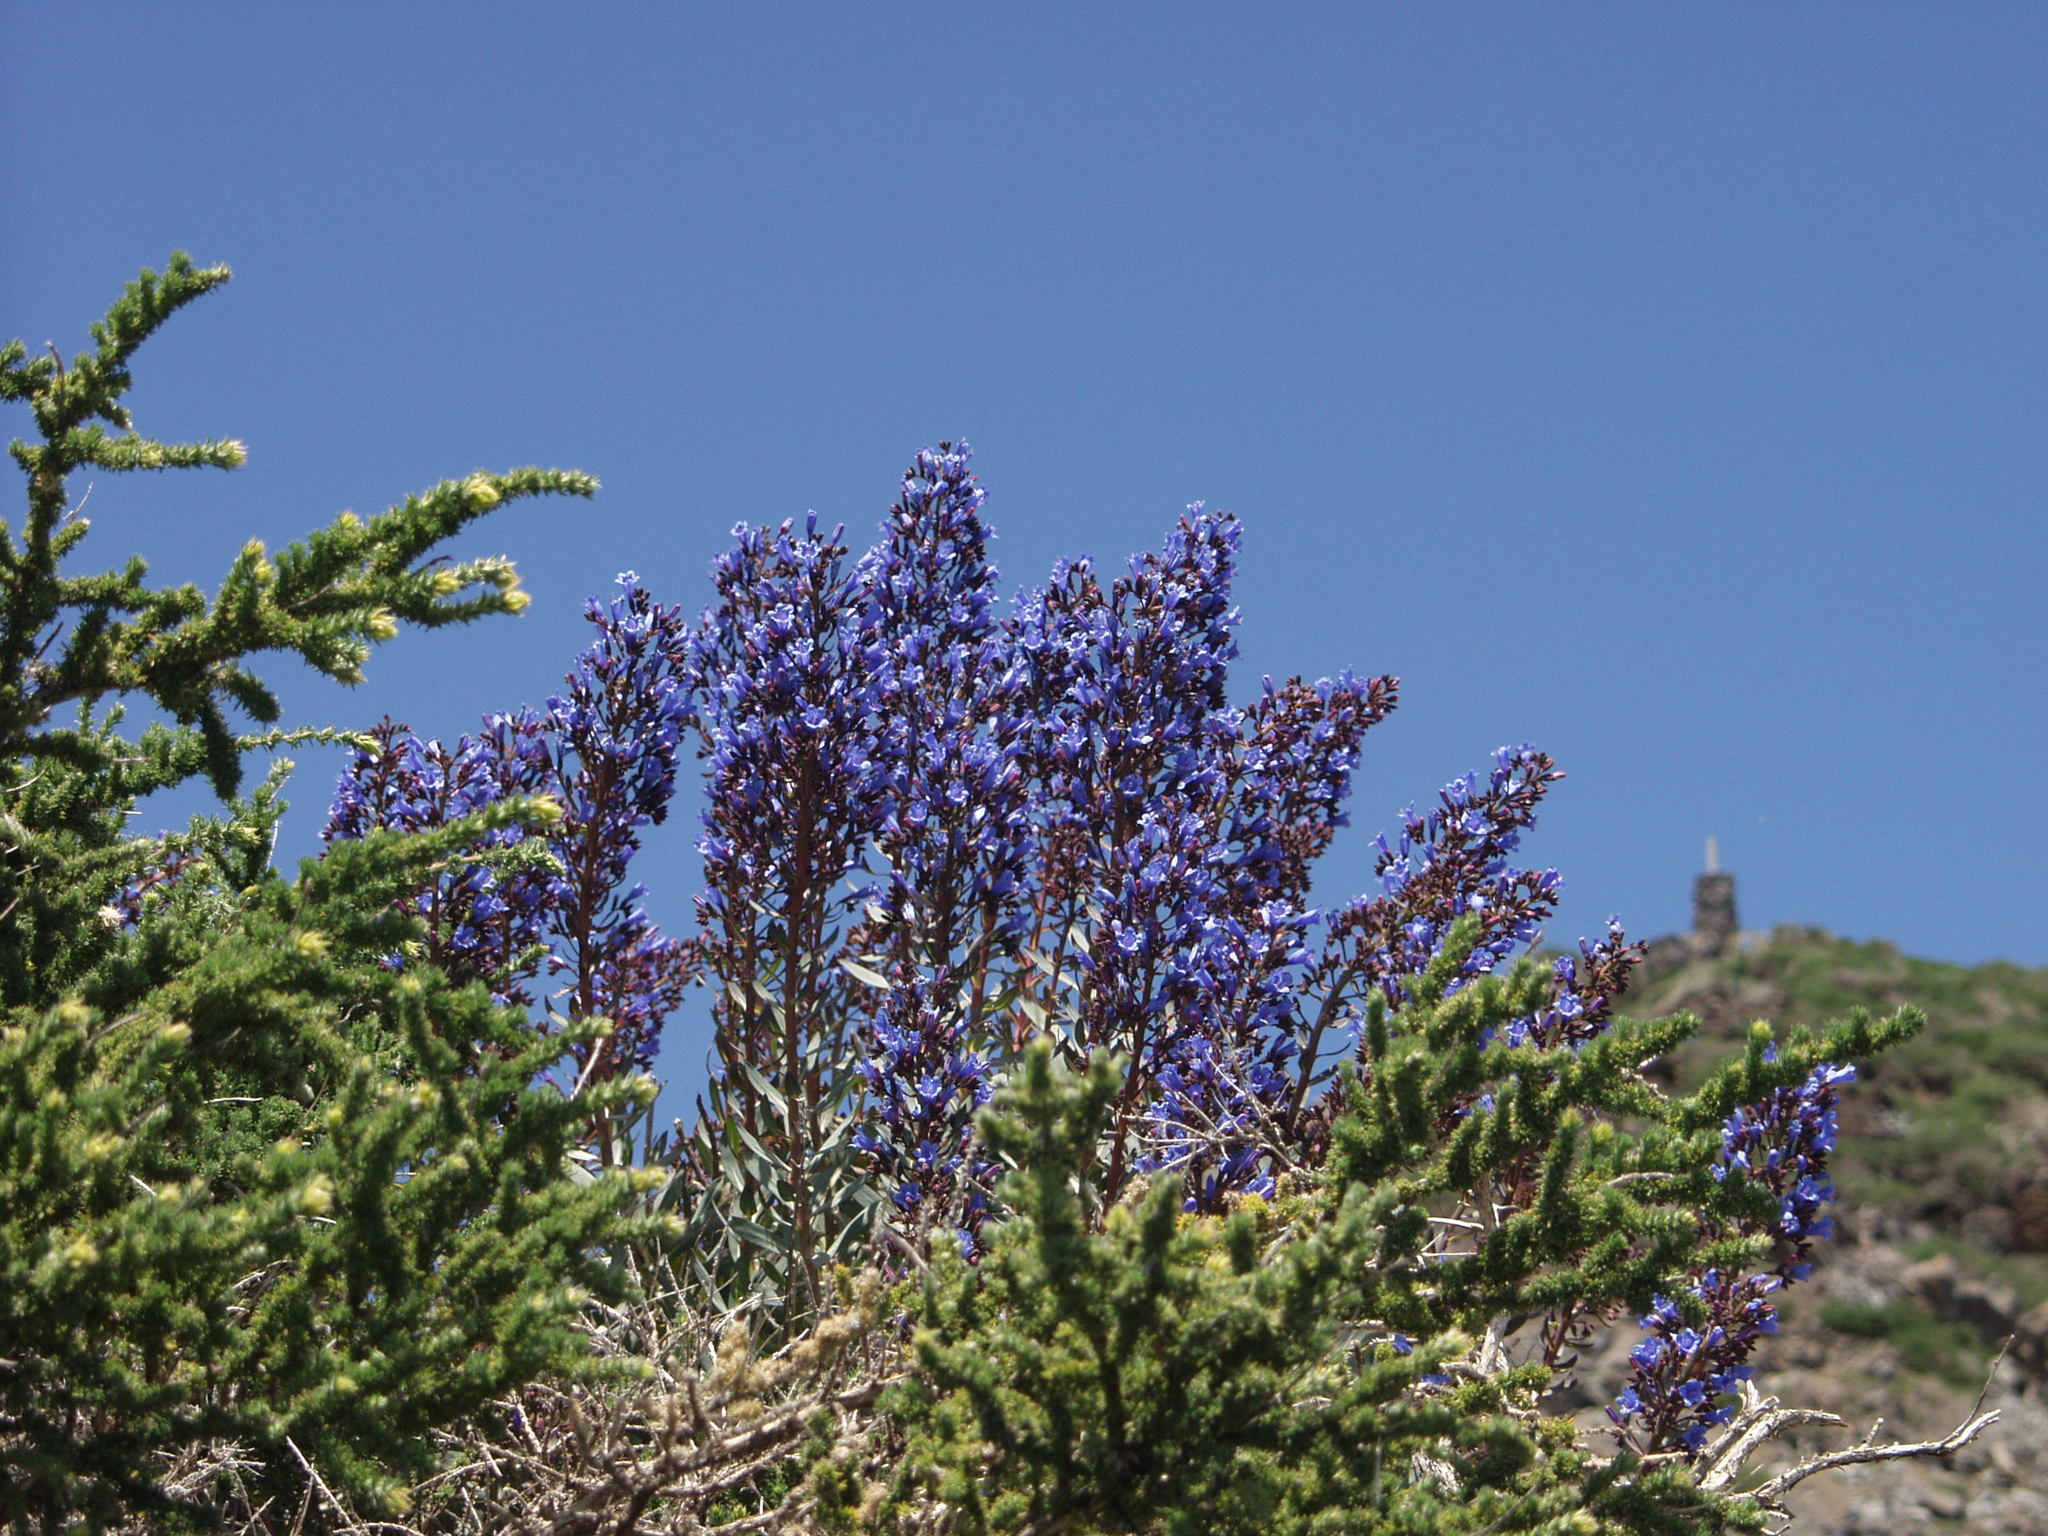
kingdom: Plantae
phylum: Tracheophyta
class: Magnoliopsida
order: Boraginales
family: Boraginaceae
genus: Echium
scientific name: Echium thyrsiflorum
